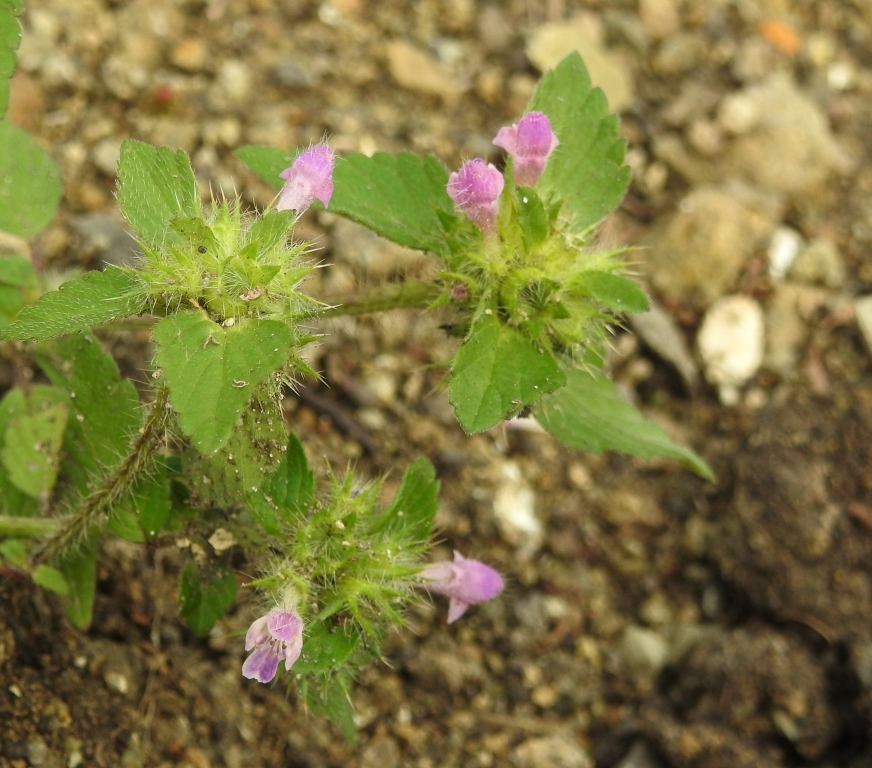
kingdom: Plantae
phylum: Tracheophyta
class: Magnoliopsida
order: Lamiales
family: Lamiaceae
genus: Galeopsis
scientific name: Galeopsis bifida
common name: Bifid hemp-nettle
